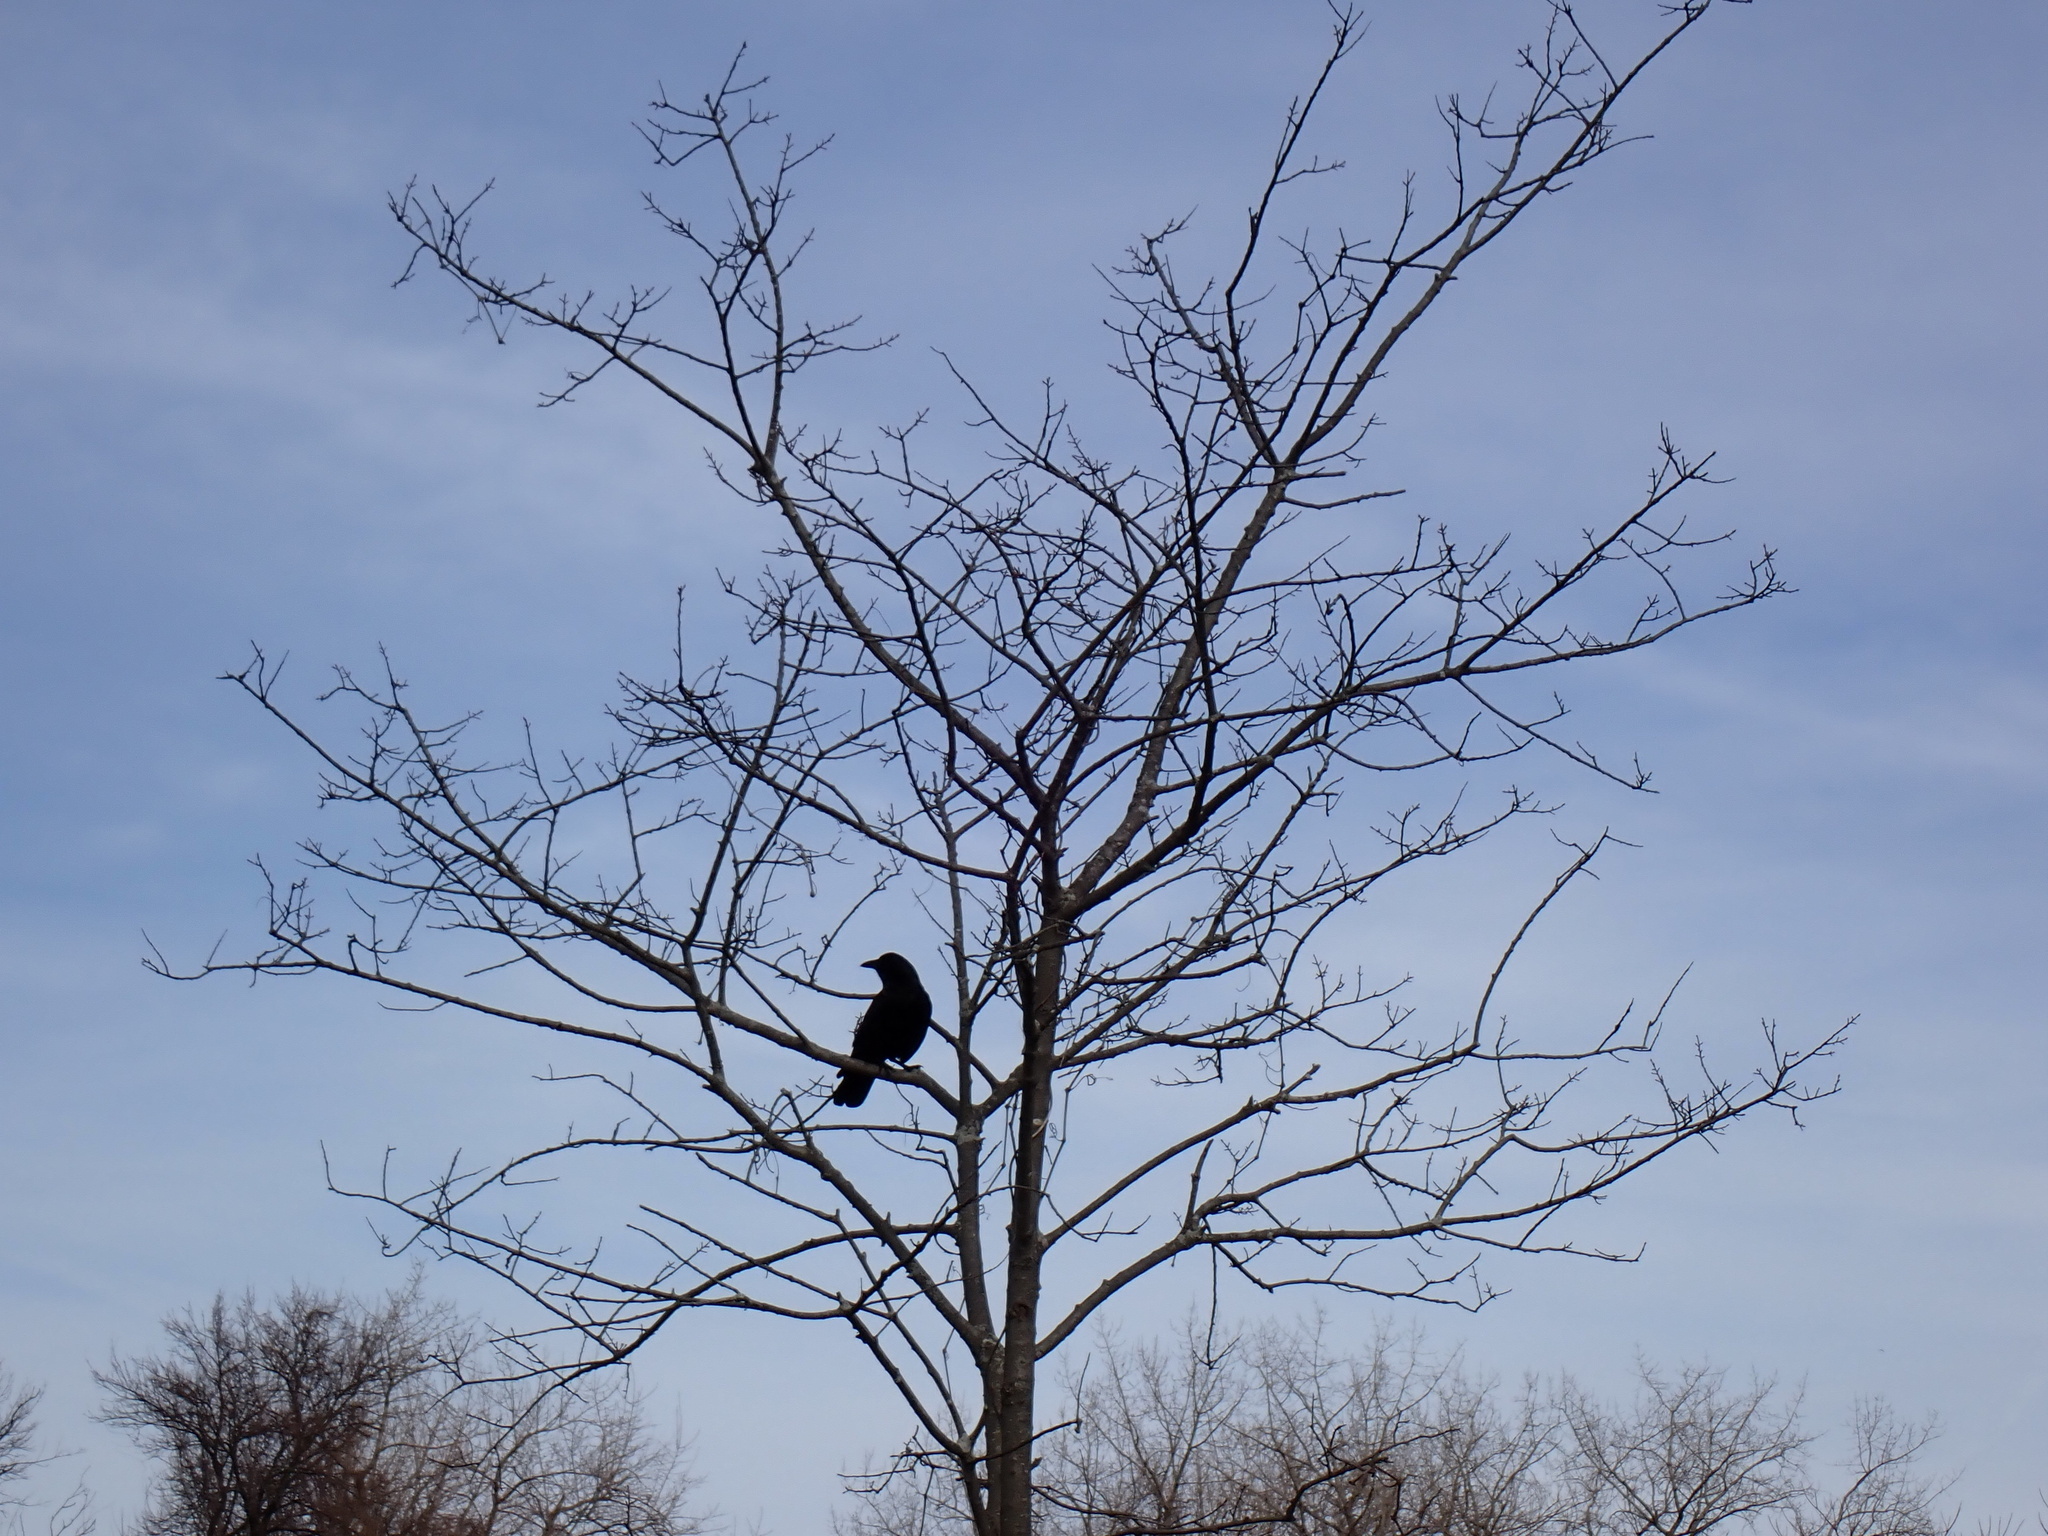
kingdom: Animalia
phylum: Chordata
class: Aves
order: Passeriformes
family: Corvidae
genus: Corvus
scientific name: Corvus brachyrhynchos
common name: American crow
